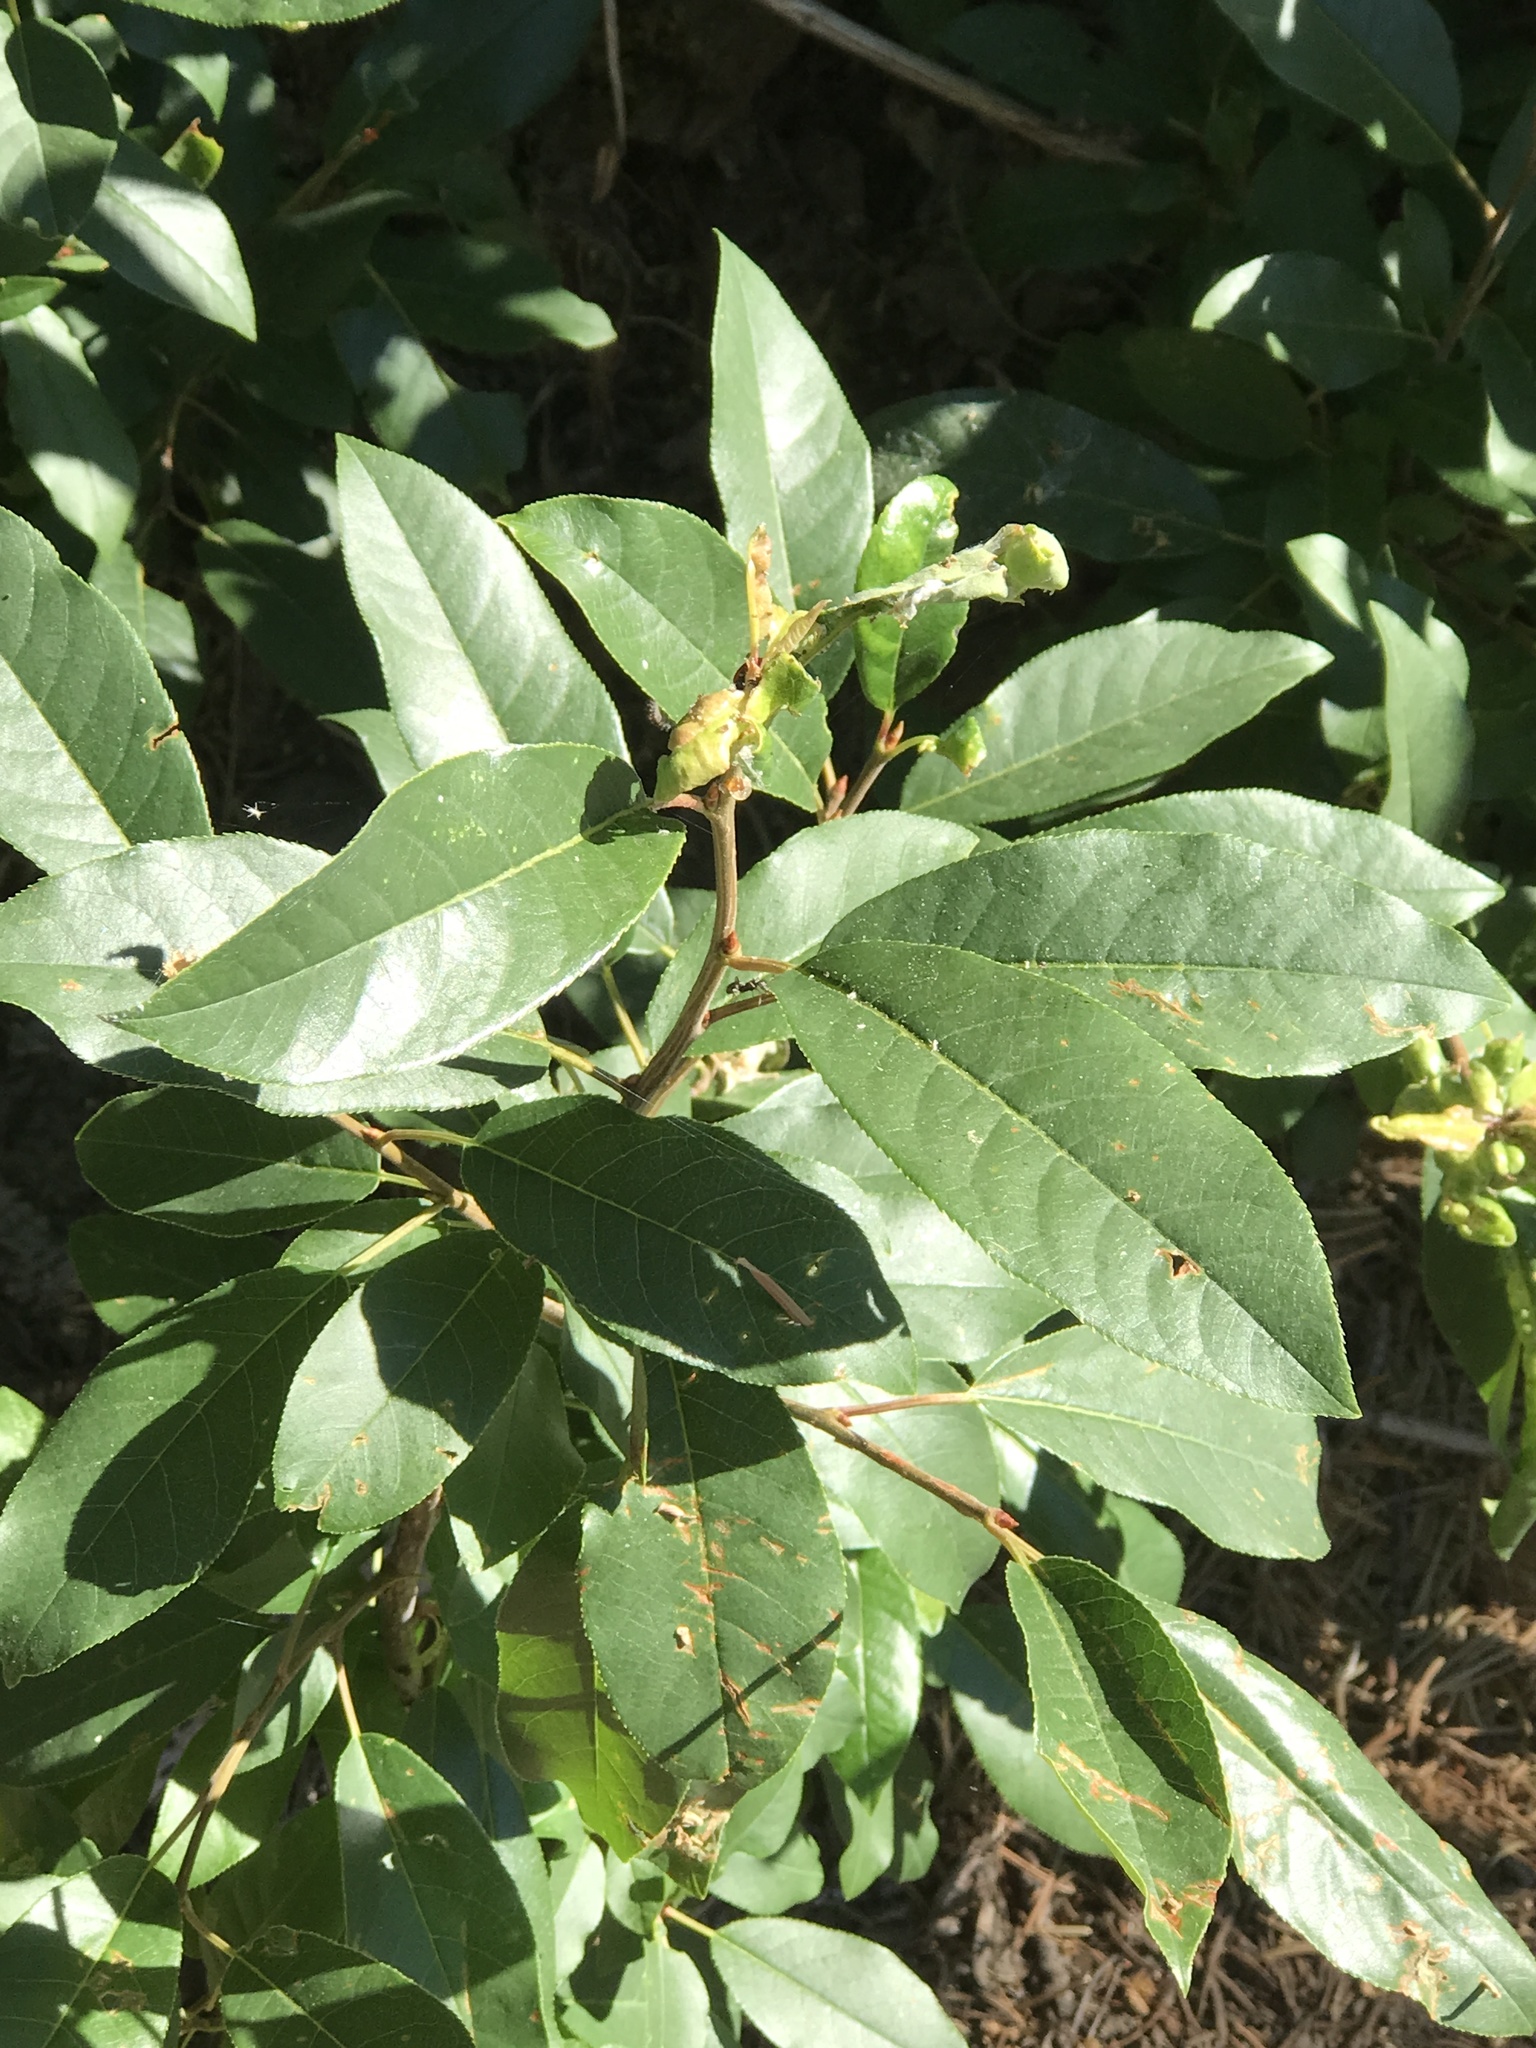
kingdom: Plantae
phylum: Tracheophyta
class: Magnoliopsida
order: Rosales
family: Rosaceae
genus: Prunus
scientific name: Prunus virginiana
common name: Chokecherry
